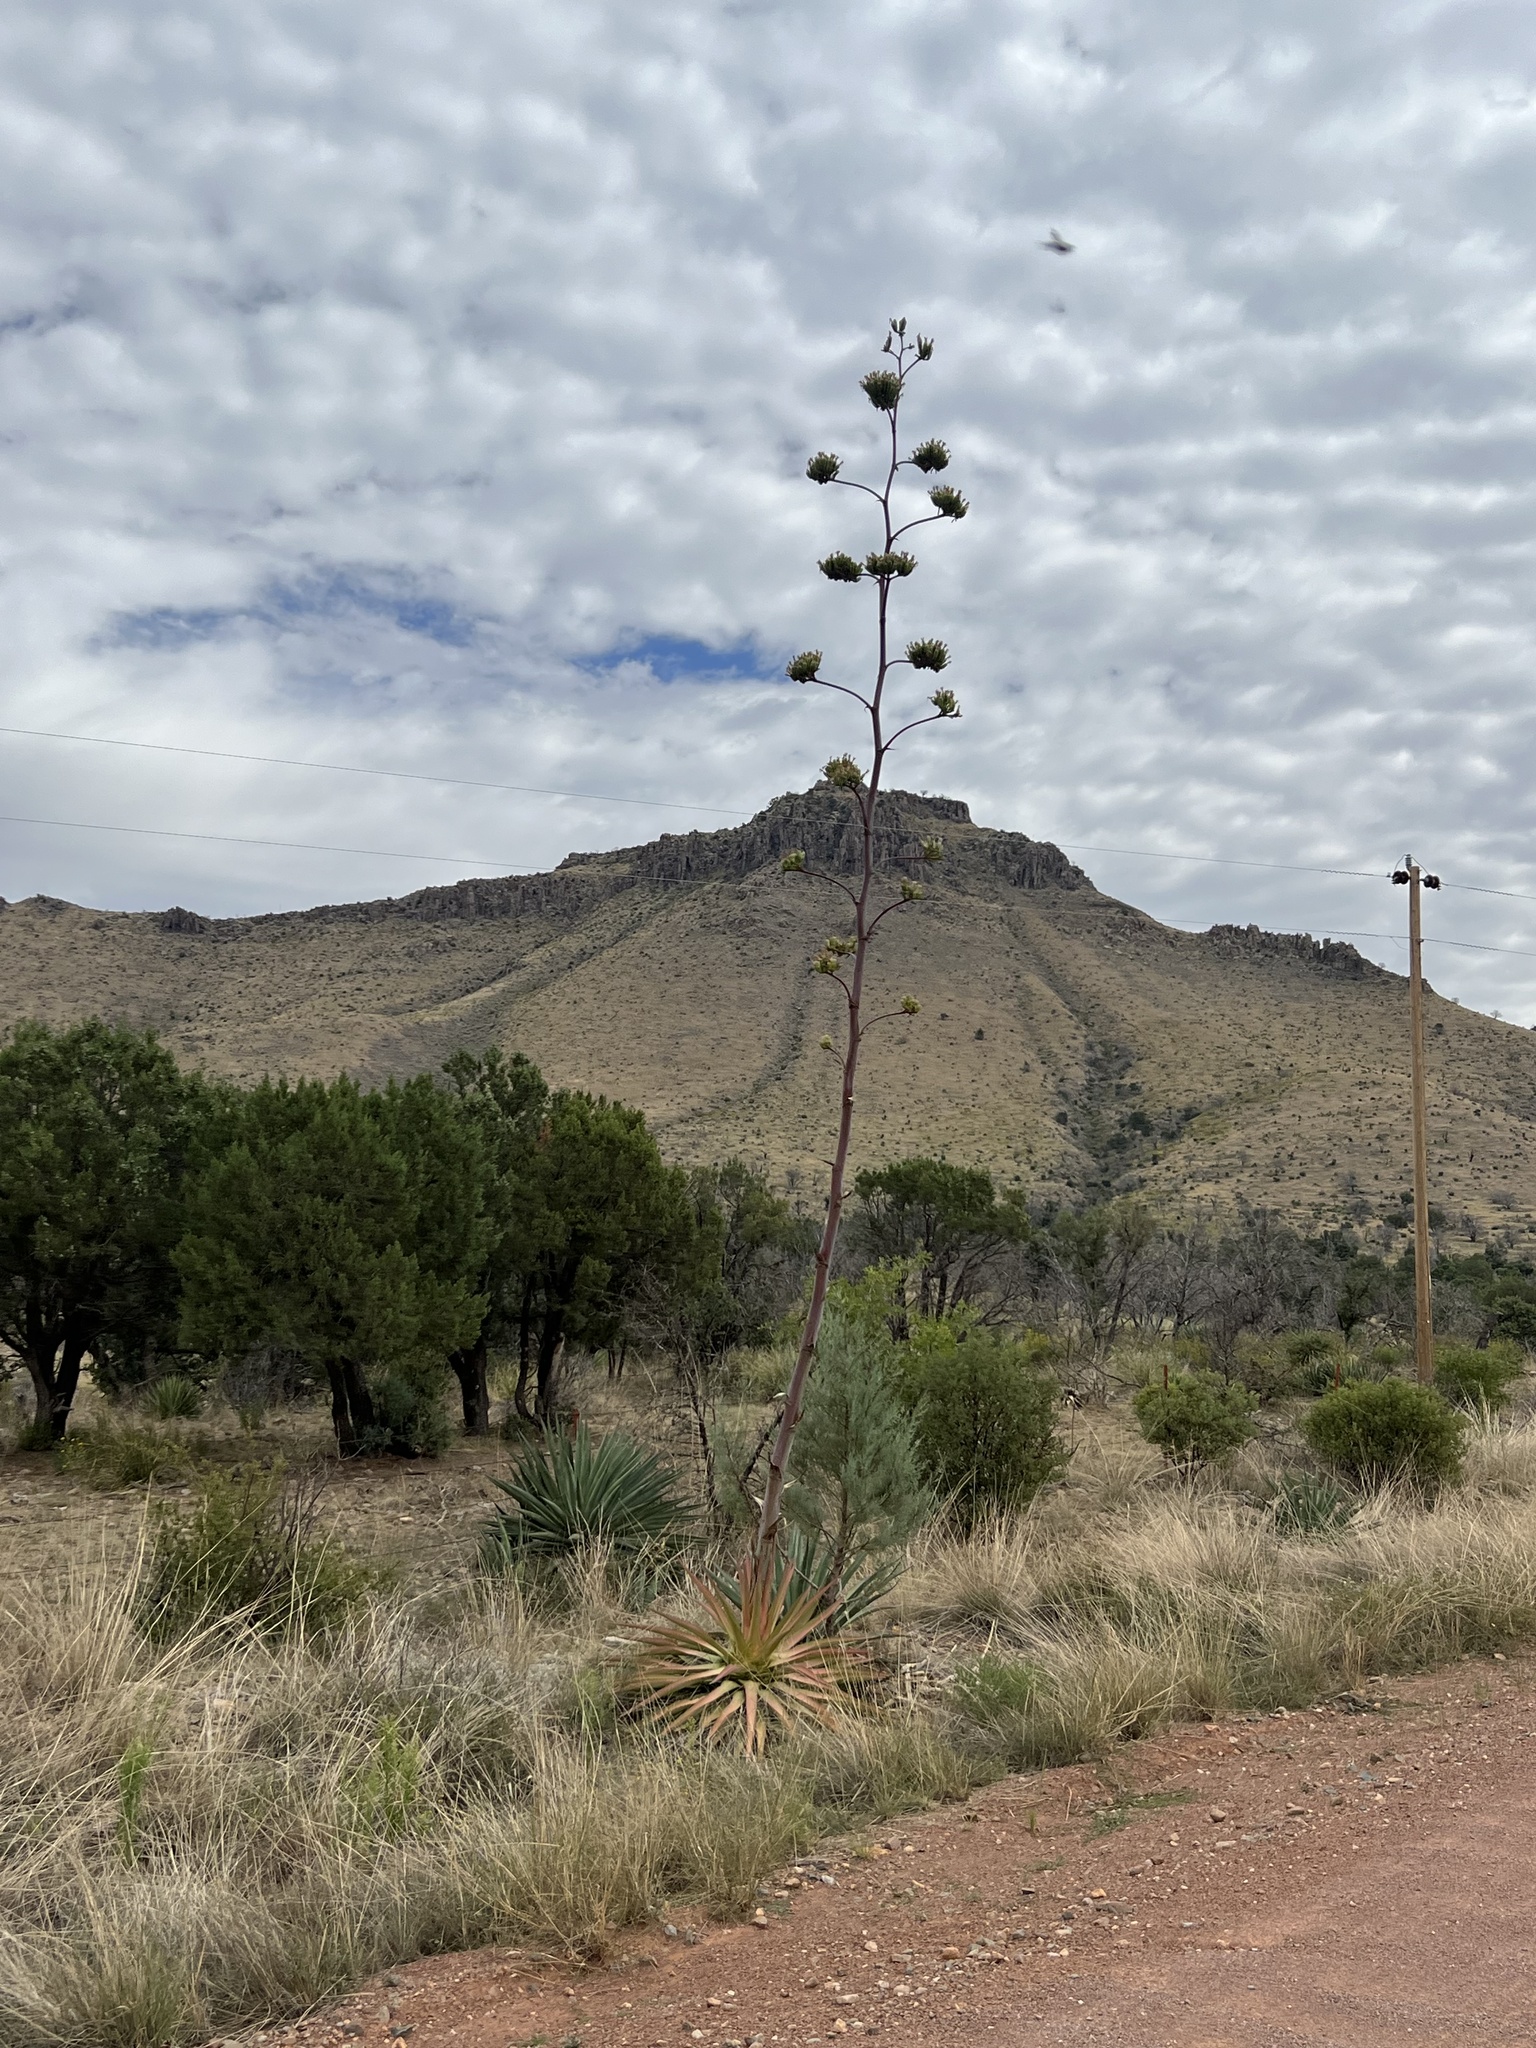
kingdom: Plantae
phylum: Tracheophyta
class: Liliopsida
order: Asparagales
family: Asparagaceae
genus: Agave
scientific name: Agave palmeri
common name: Palmer agave
